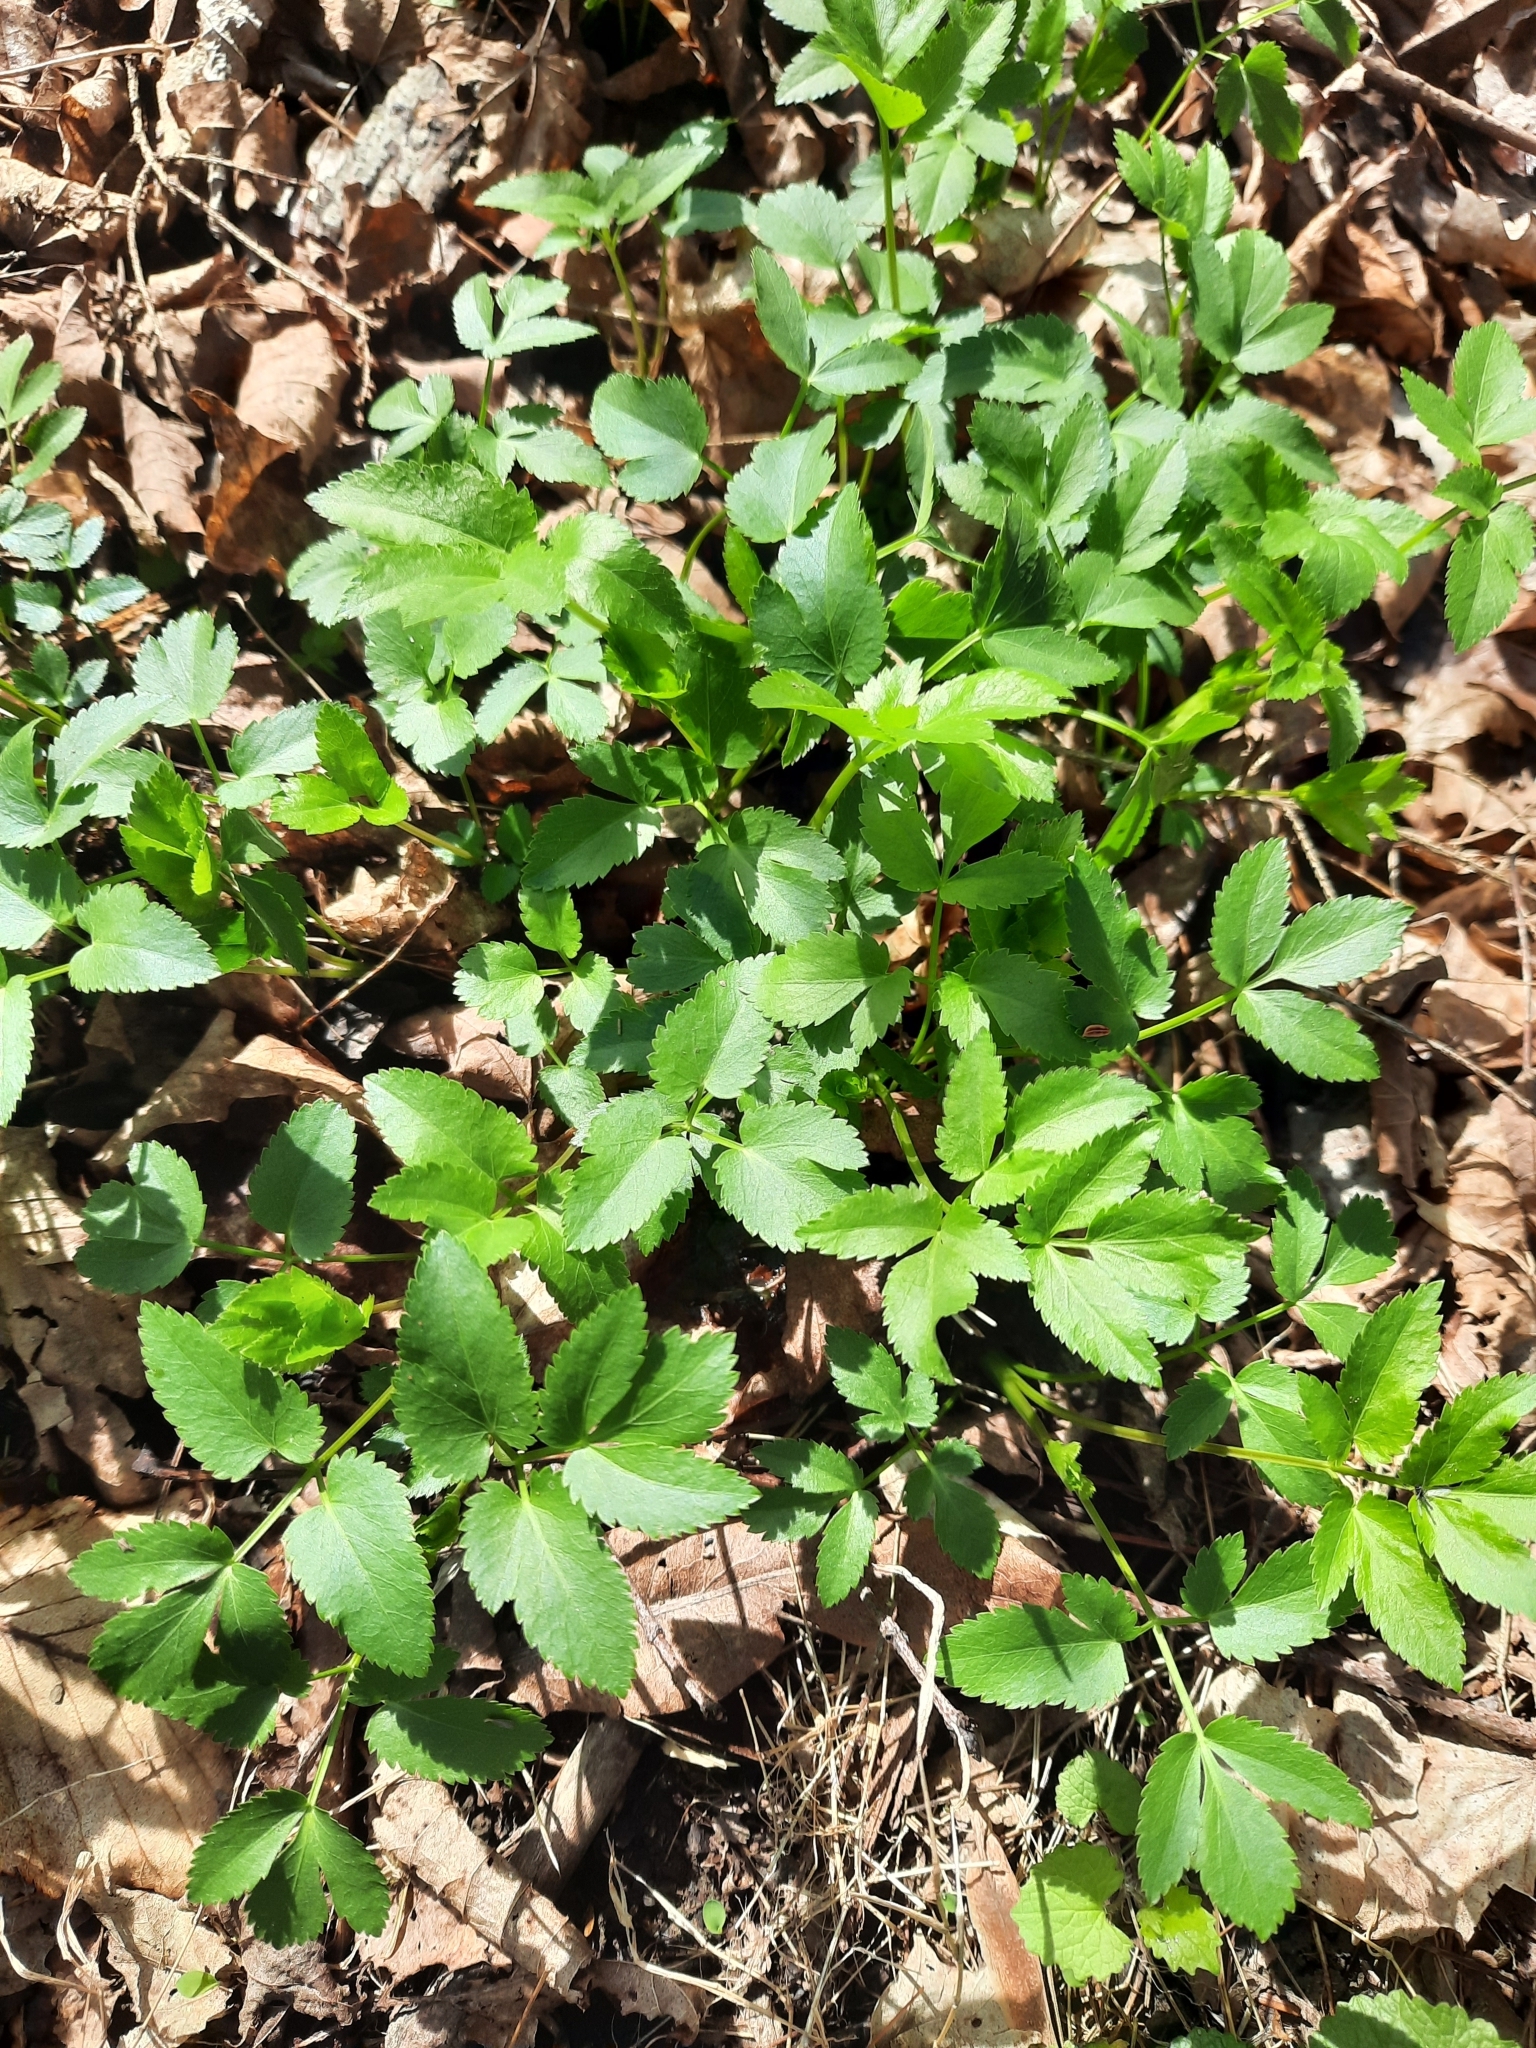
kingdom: Plantae
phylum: Tracheophyta
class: Magnoliopsida
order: Apiales
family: Apiaceae
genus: Zizia
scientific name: Zizia aurea
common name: Golden alexanders
